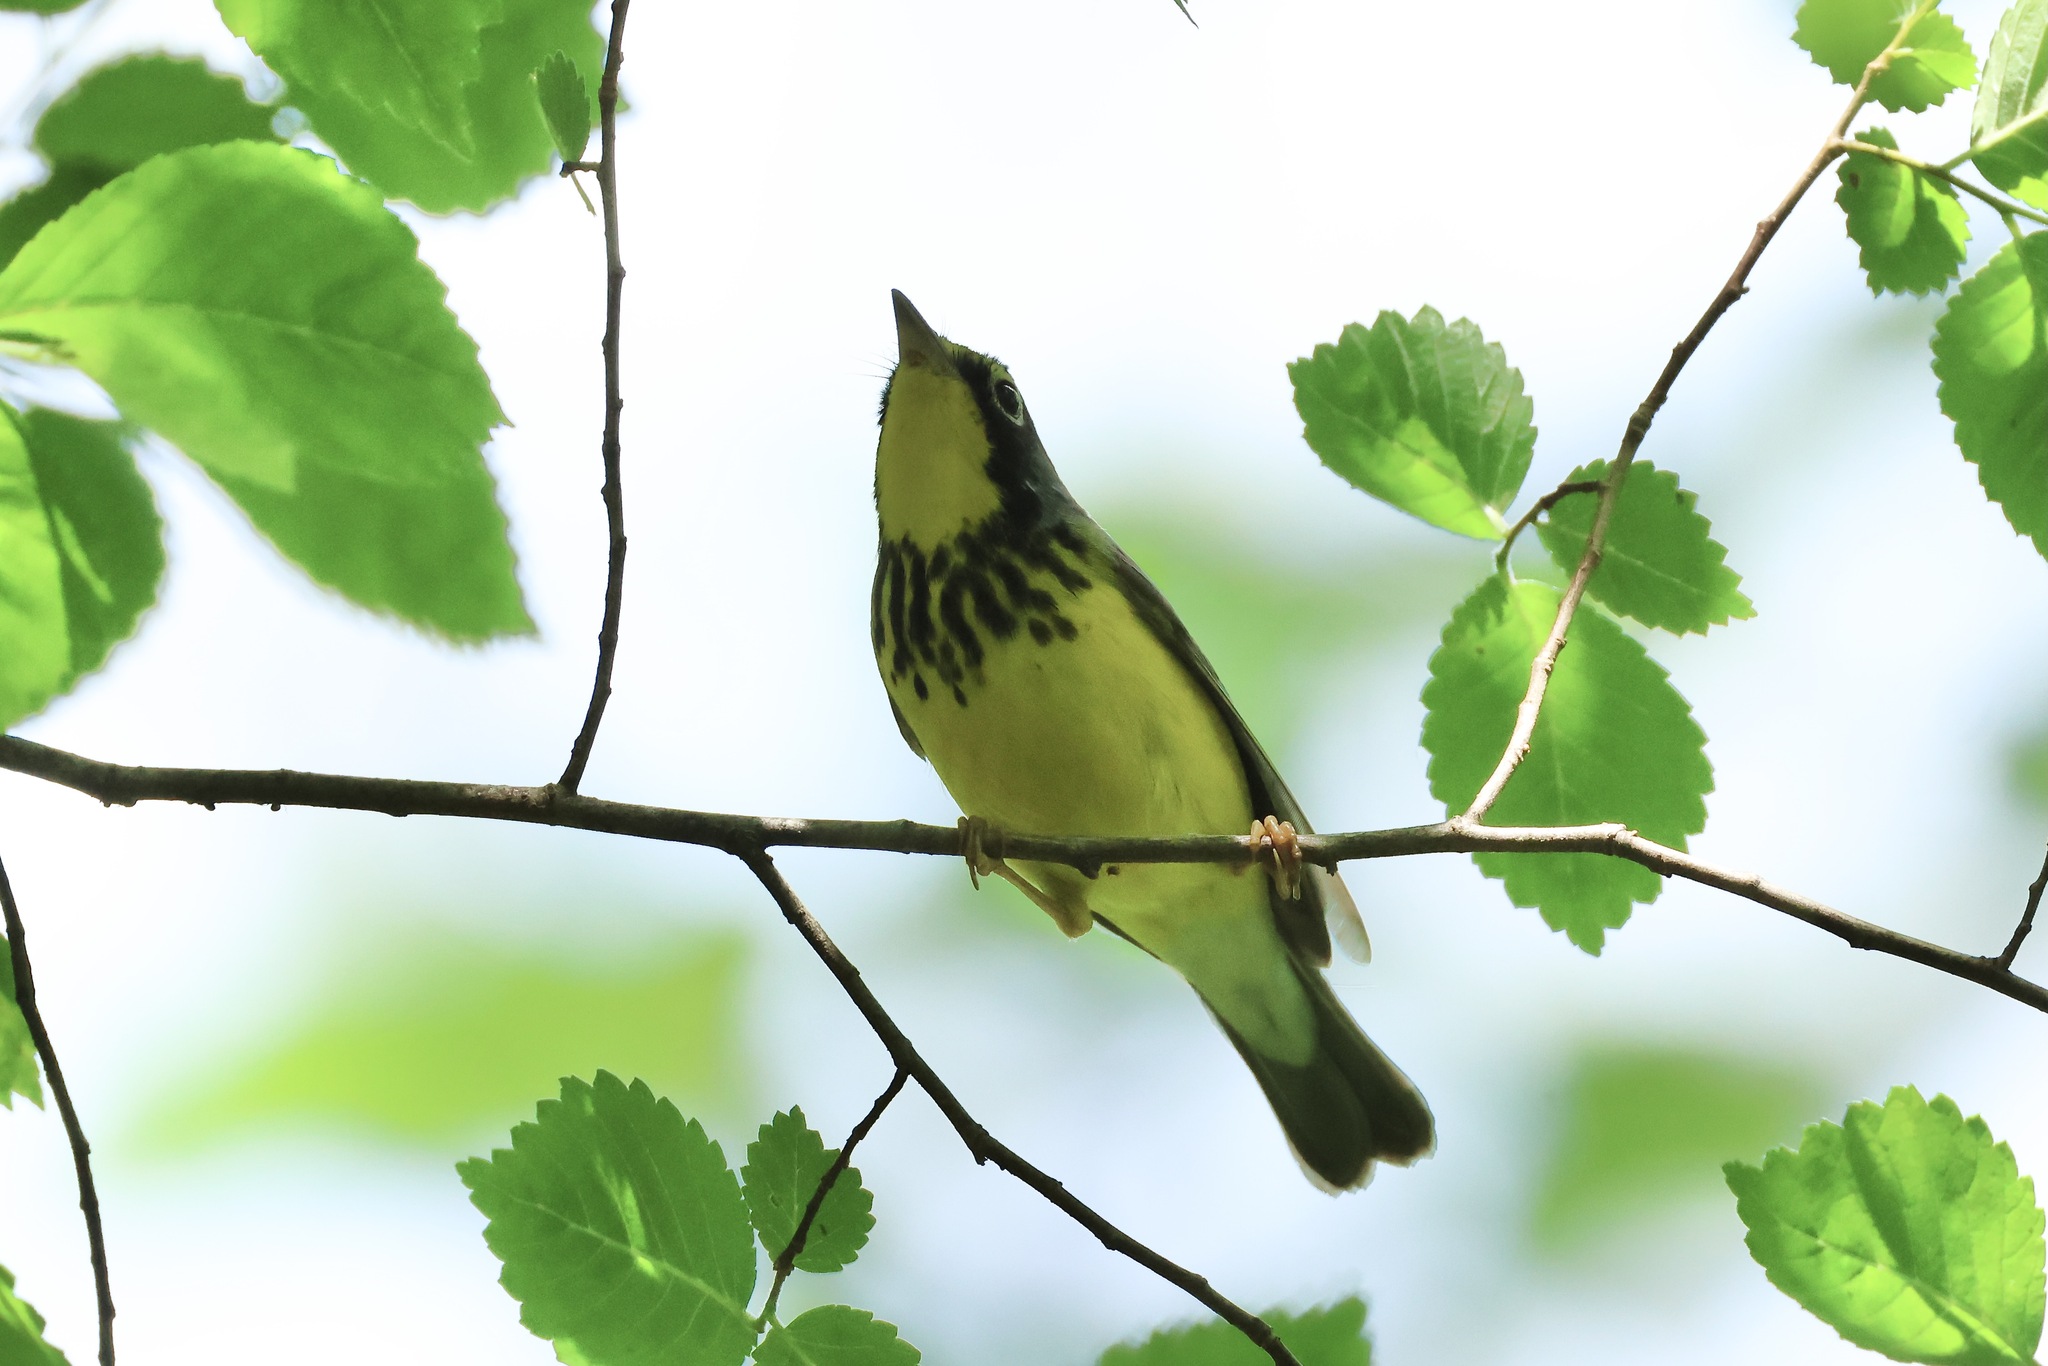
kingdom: Animalia
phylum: Chordata
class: Aves
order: Passeriformes
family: Parulidae
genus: Cardellina
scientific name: Cardellina canadensis
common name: Canada warbler
